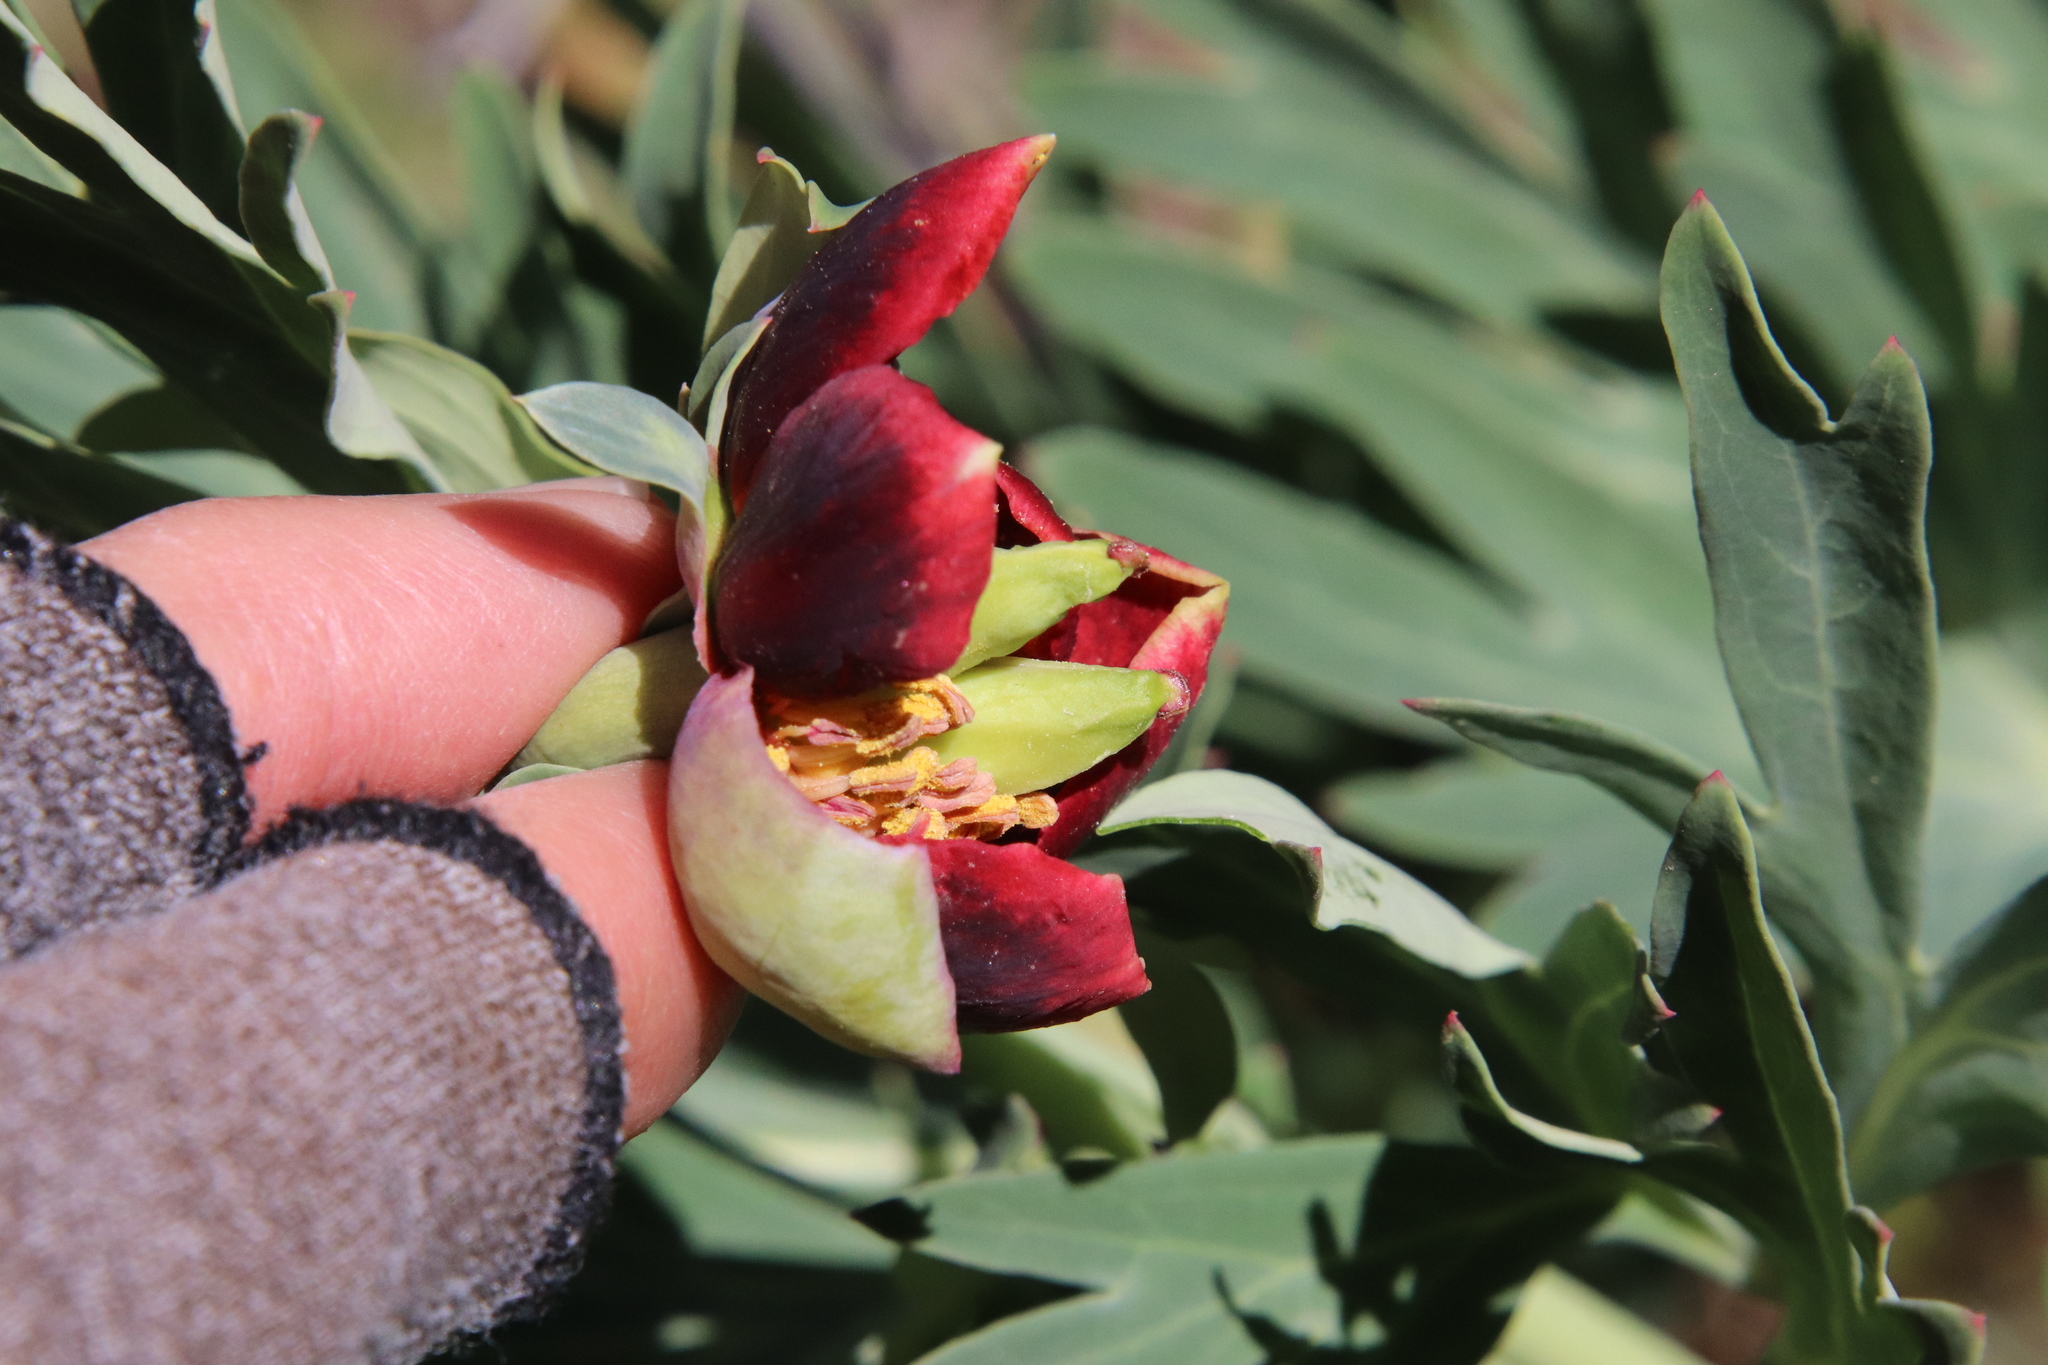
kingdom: Plantae
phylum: Tracheophyta
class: Magnoliopsida
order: Saxifragales
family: Paeoniaceae
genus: Paeonia
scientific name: Paeonia californica
